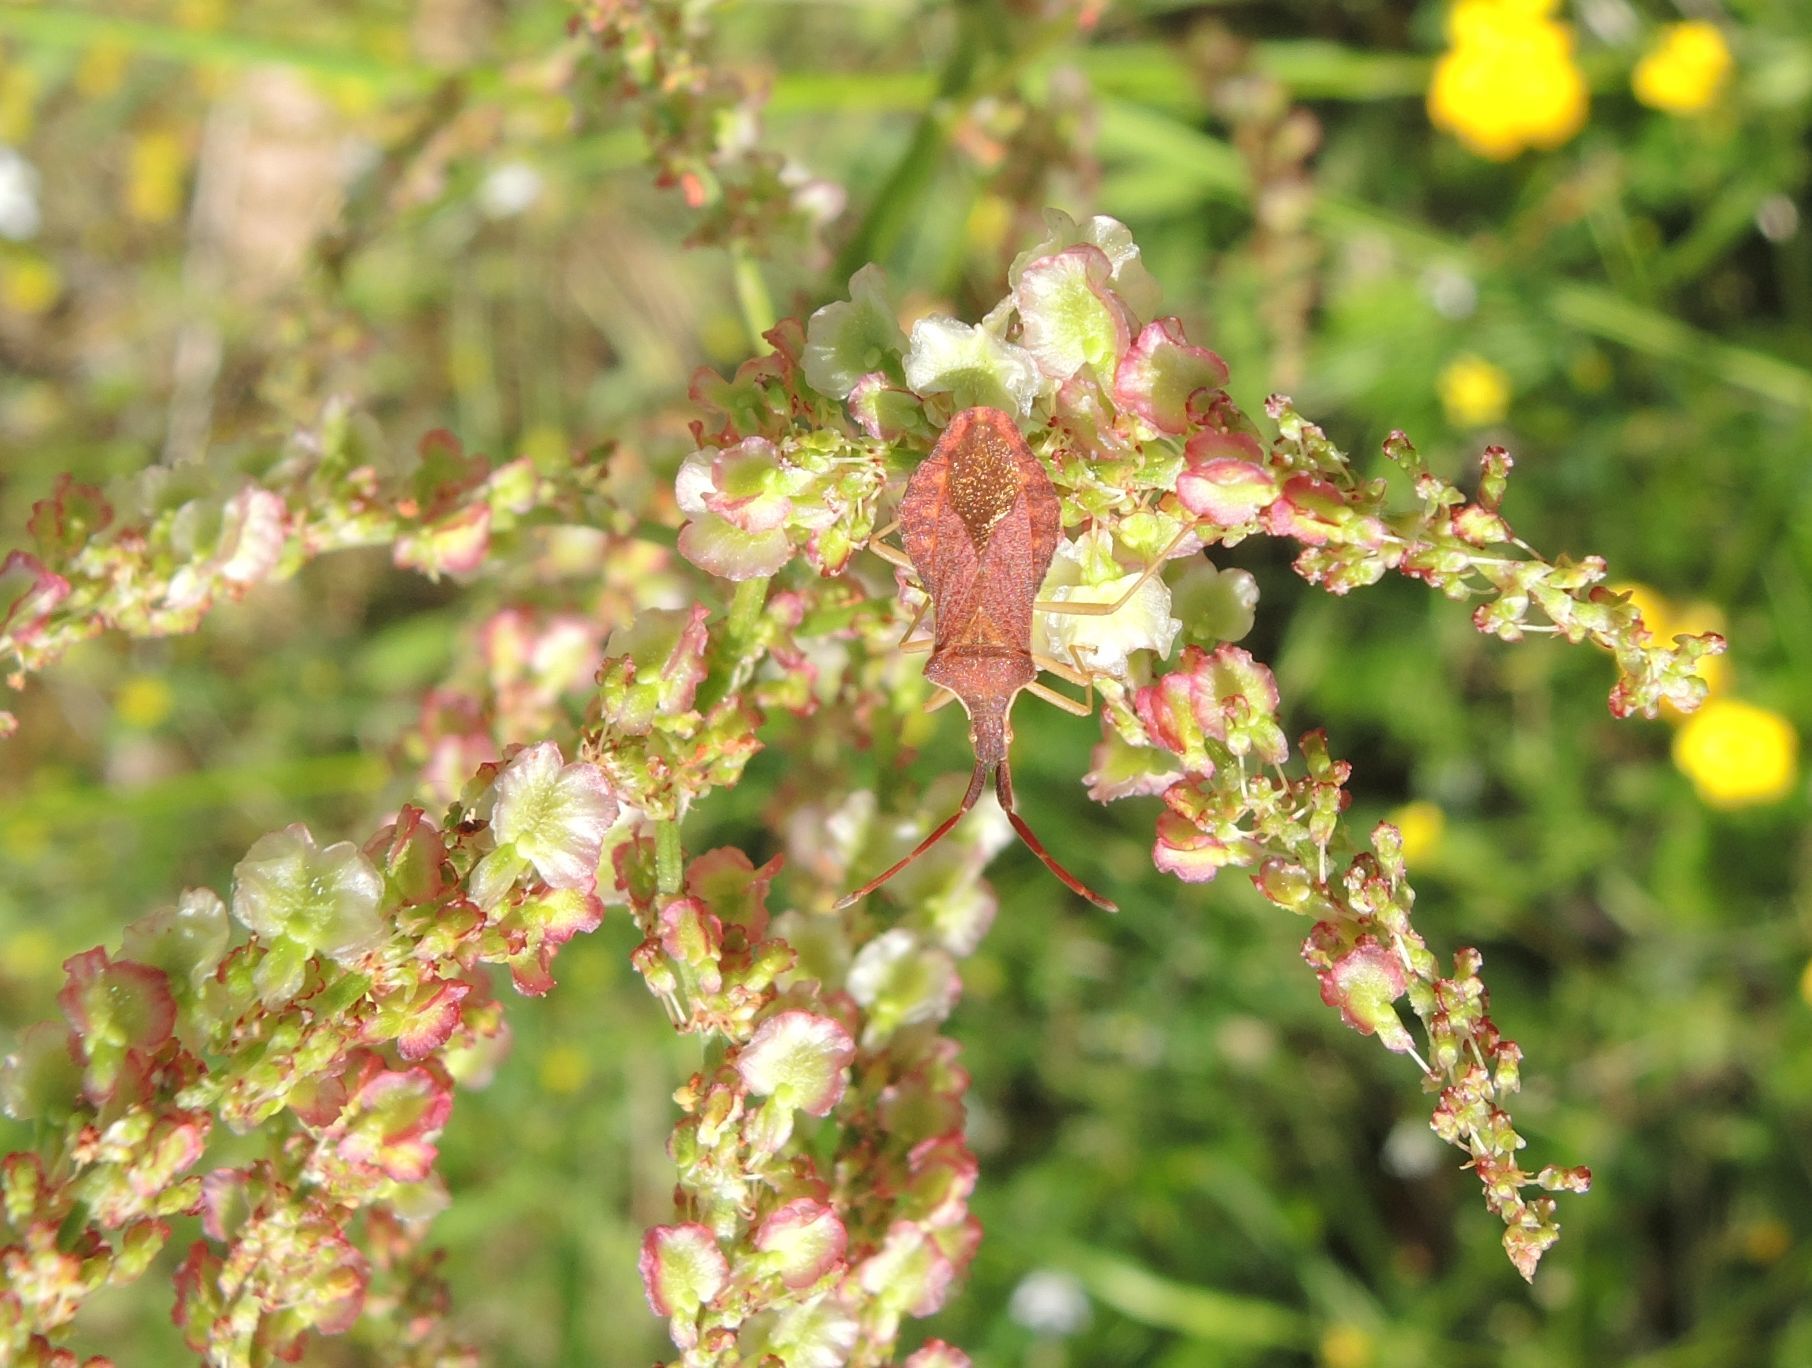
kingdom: Animalia
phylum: Arthropoda
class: Insecta
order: Hemiptera
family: Coreidae
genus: Haploprocta
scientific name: Haploprocta sulcicornis
